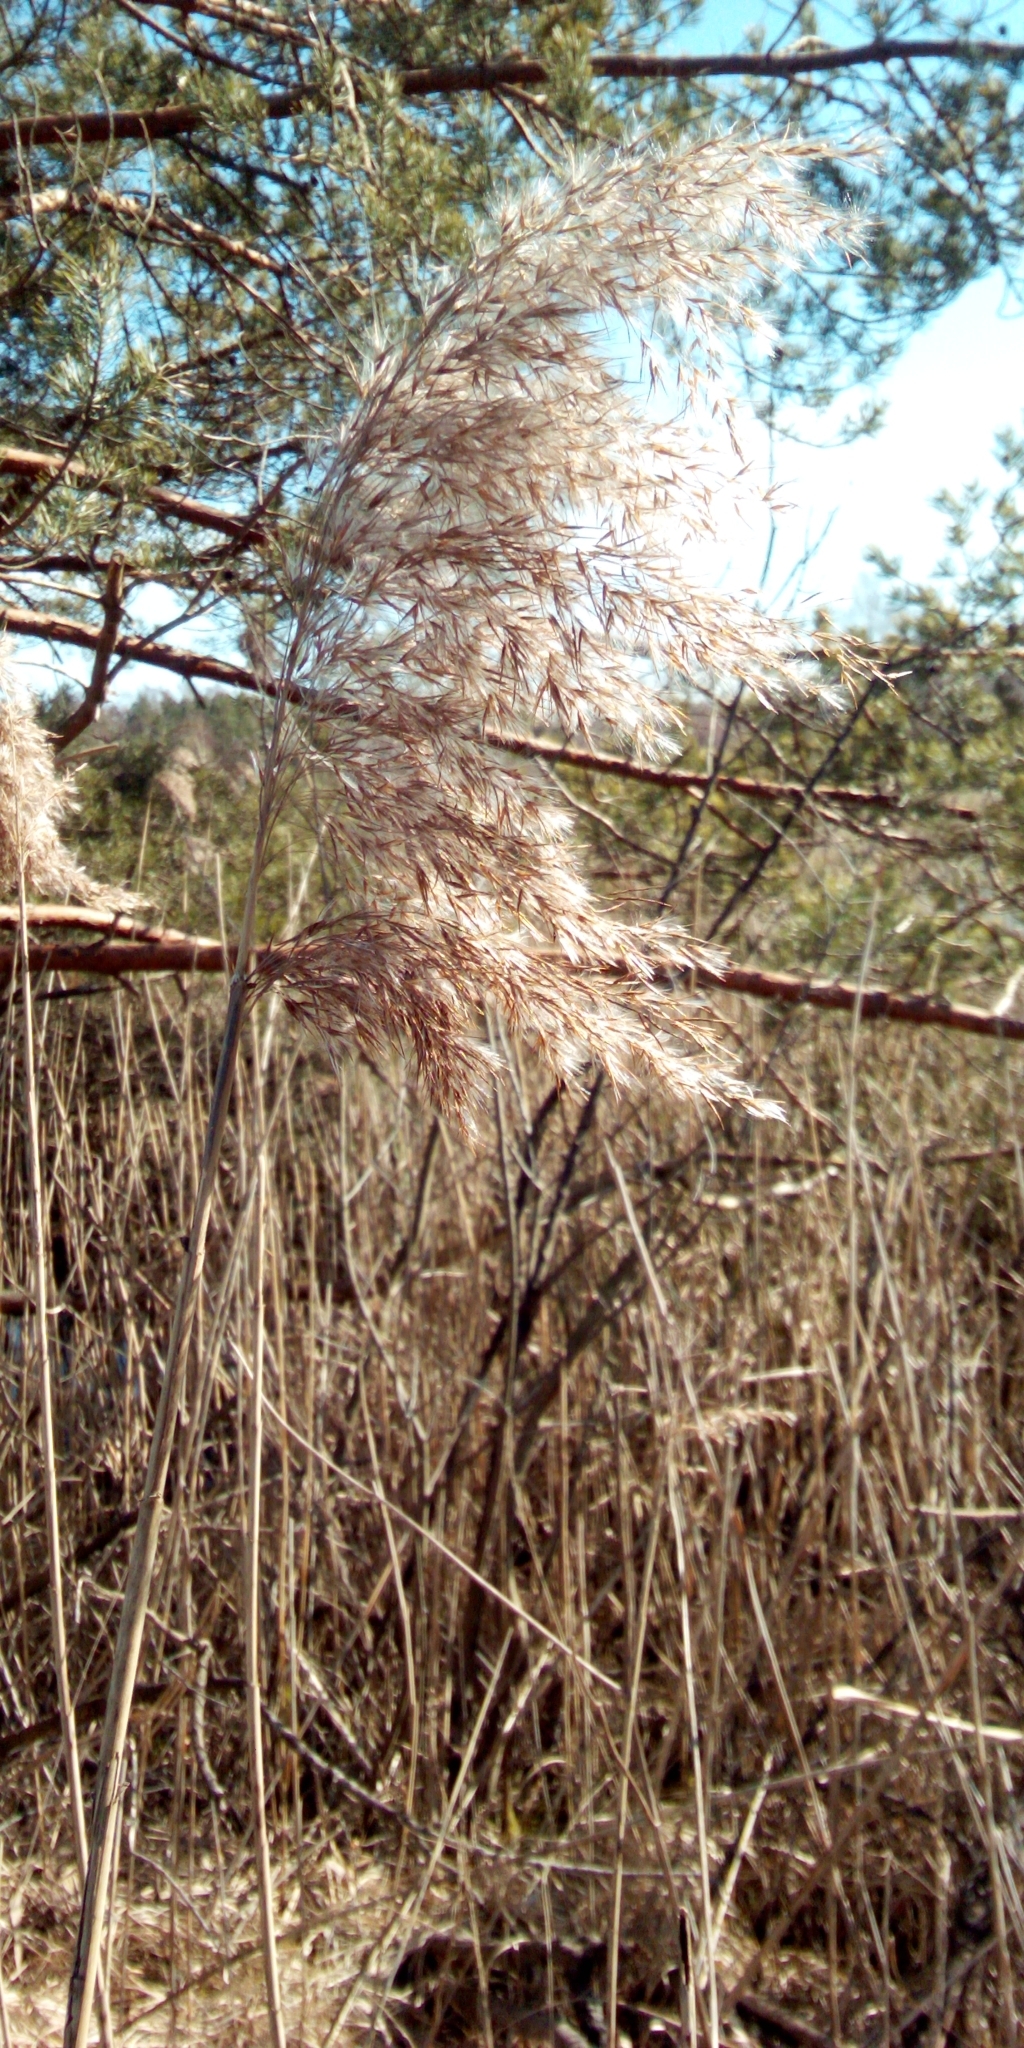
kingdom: Plantae
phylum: Tracheophyta
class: Liliopsida
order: Poales
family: Poaceae
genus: Phragmites
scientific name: Phragmites australis
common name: Common reed
